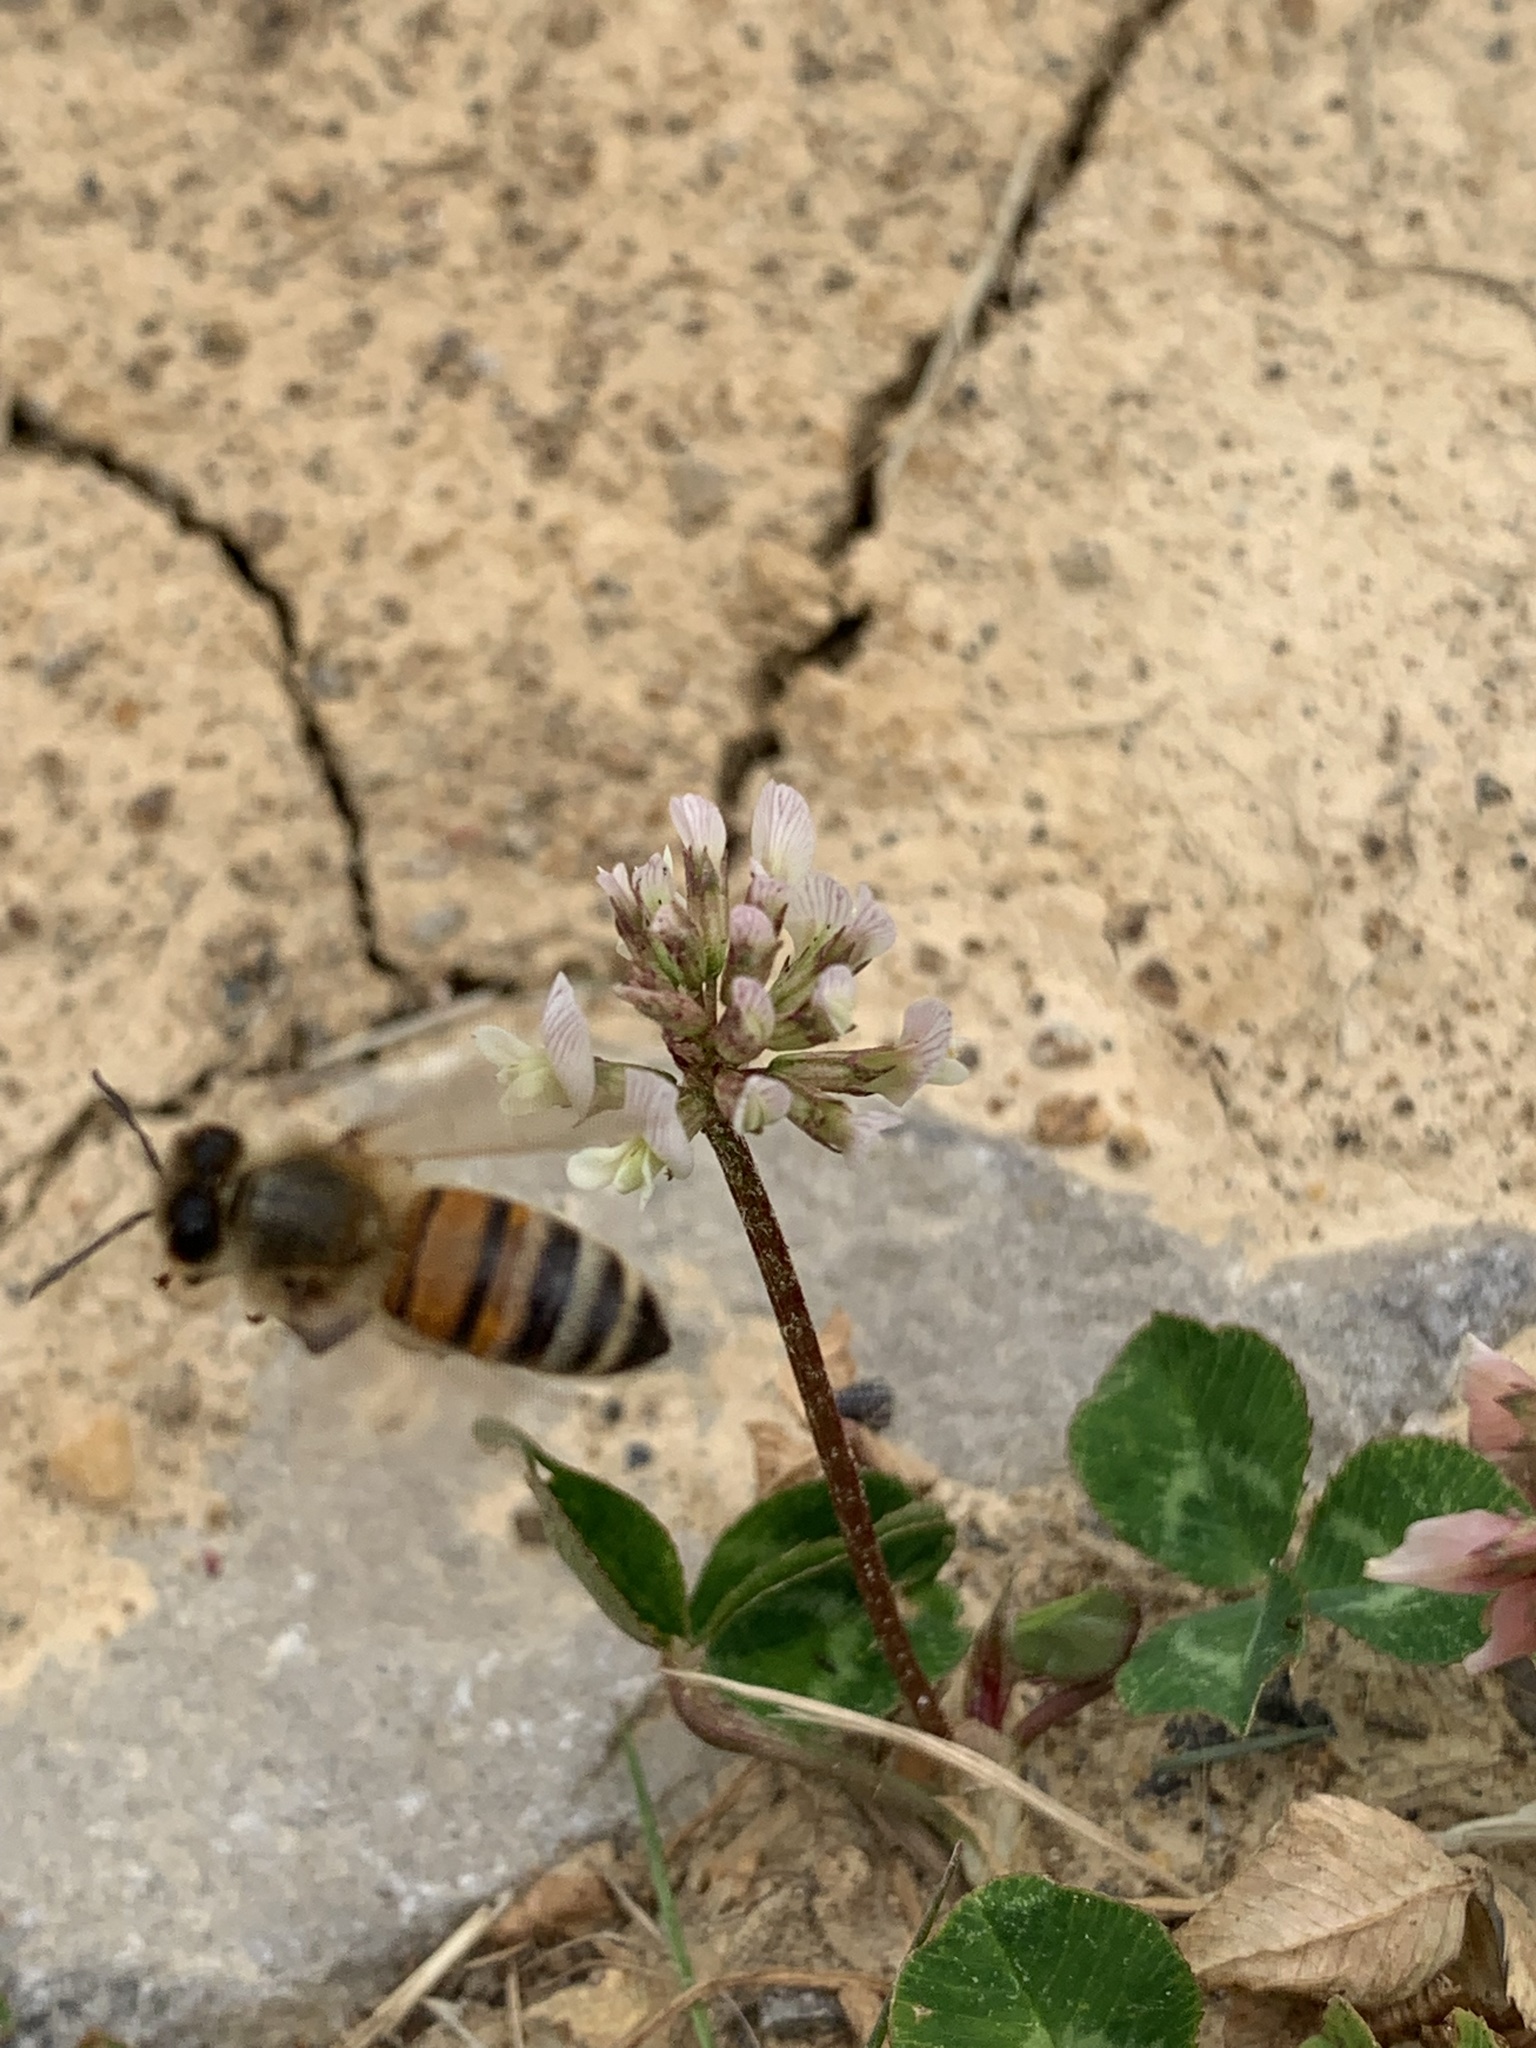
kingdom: Animalia
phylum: Arthropoda
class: Insecta
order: Hymenoptera
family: Apidae
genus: Apis
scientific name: Apis mellifera
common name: Honey bee
